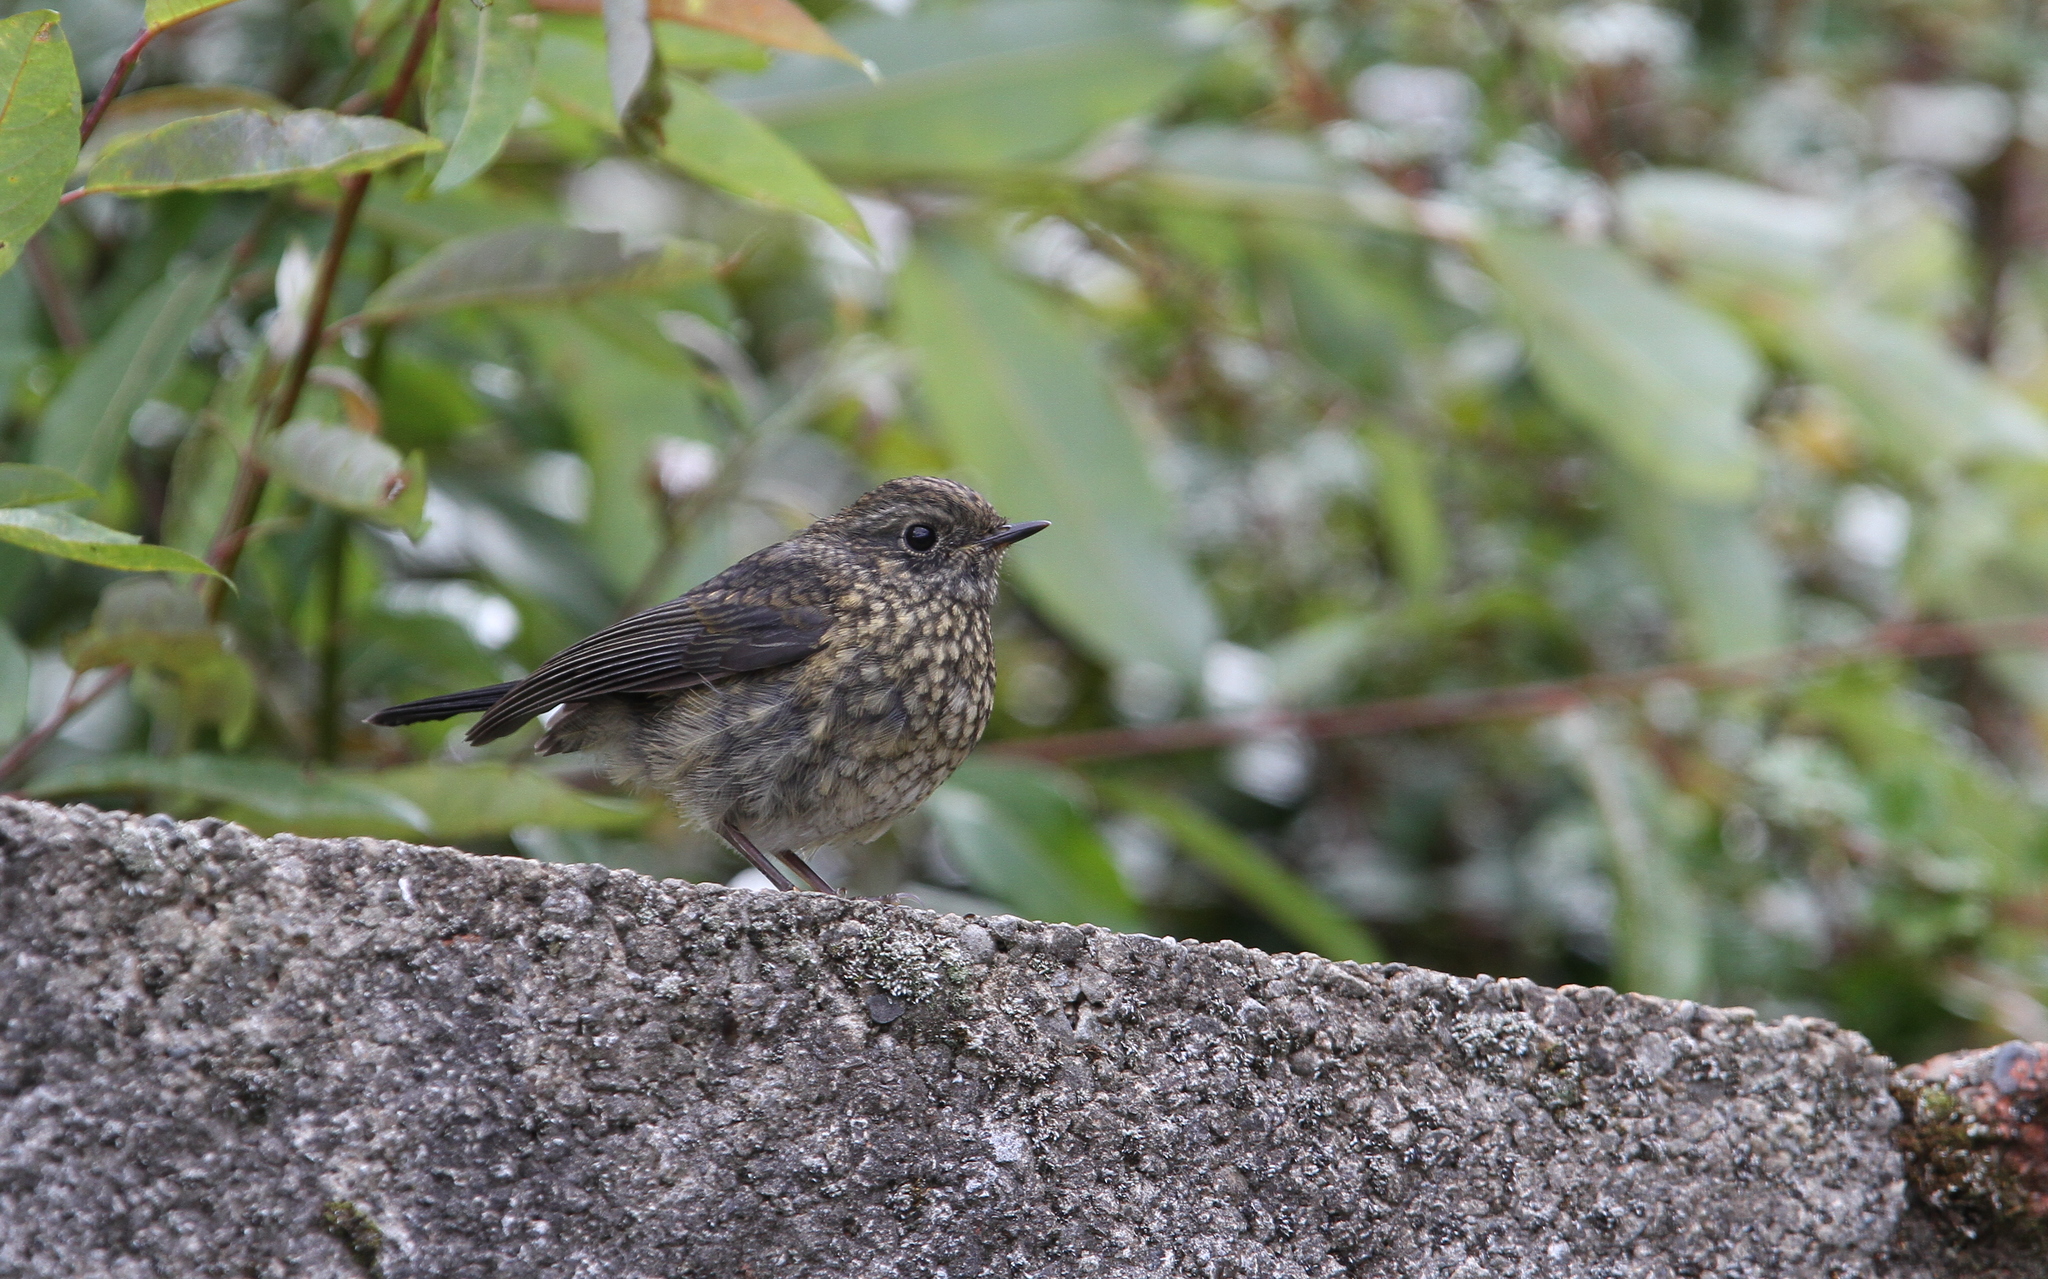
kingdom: Animalia
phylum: Chordata
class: Aves
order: Passeriformes
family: Muscicapidae
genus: Tarsiger
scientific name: Tarsiger johnstoniae
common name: Collared bush robin
